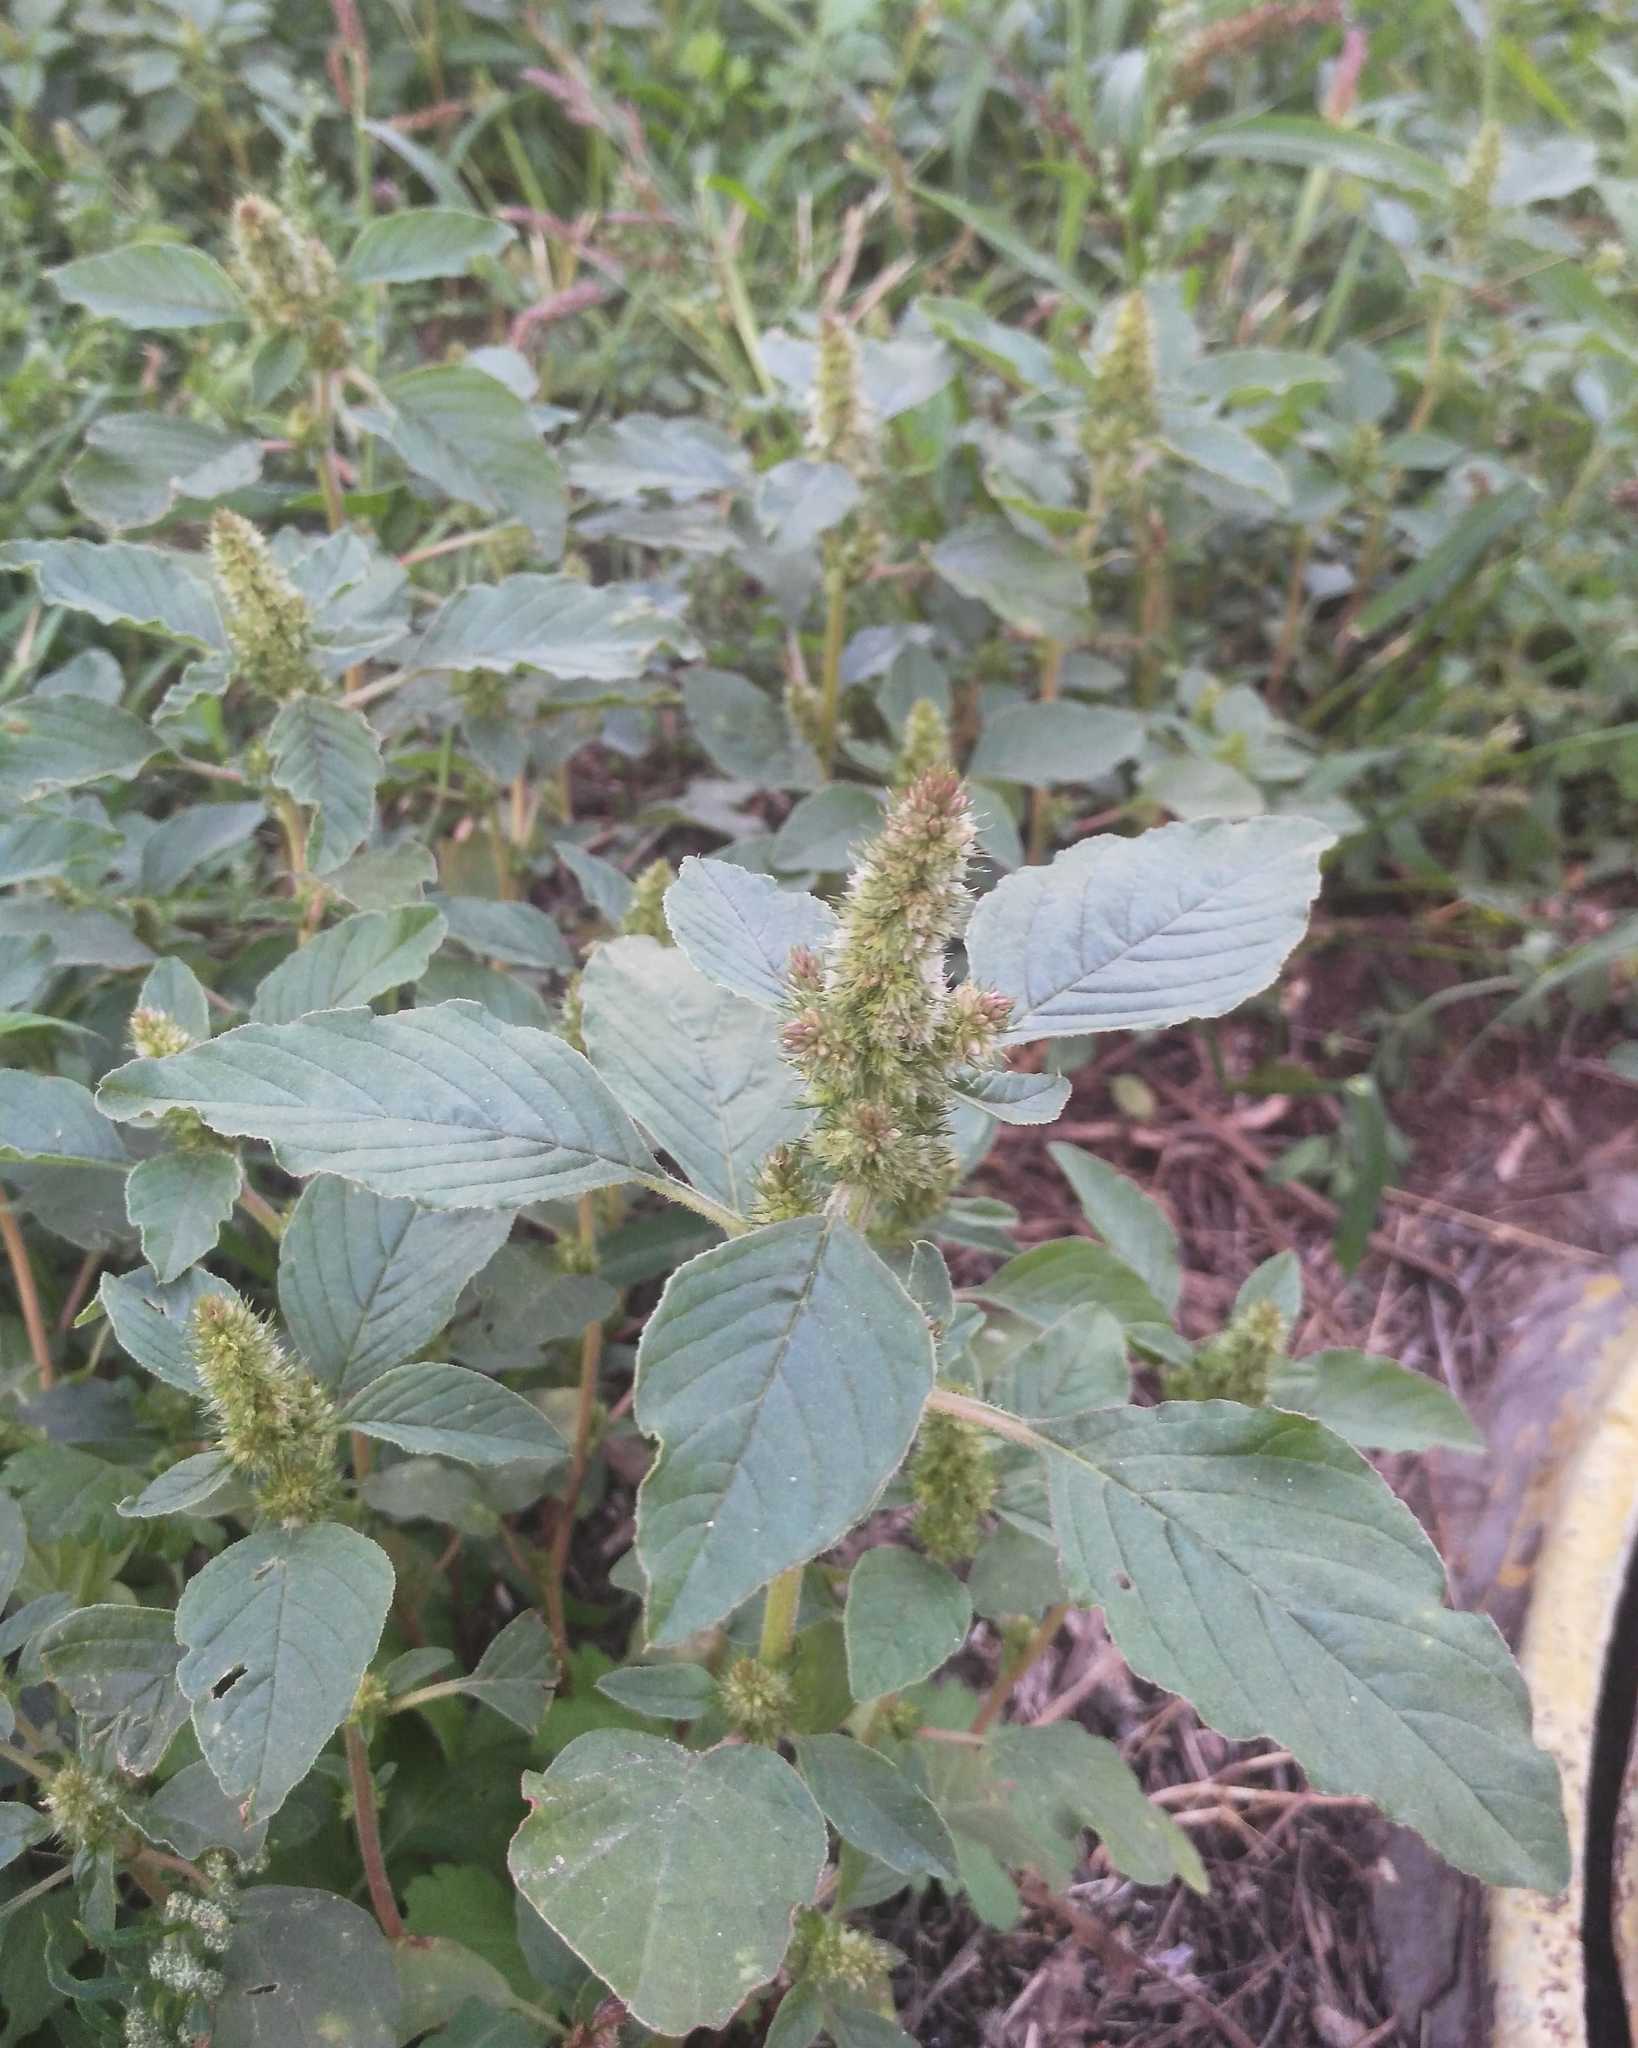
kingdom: Plantae
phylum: Tracheophyta
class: Magnoliopsida
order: Caryophyllales
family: Amaranthaceae
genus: Amaranthus
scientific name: Amaranthus retroflexus
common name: Redroot amaranth
